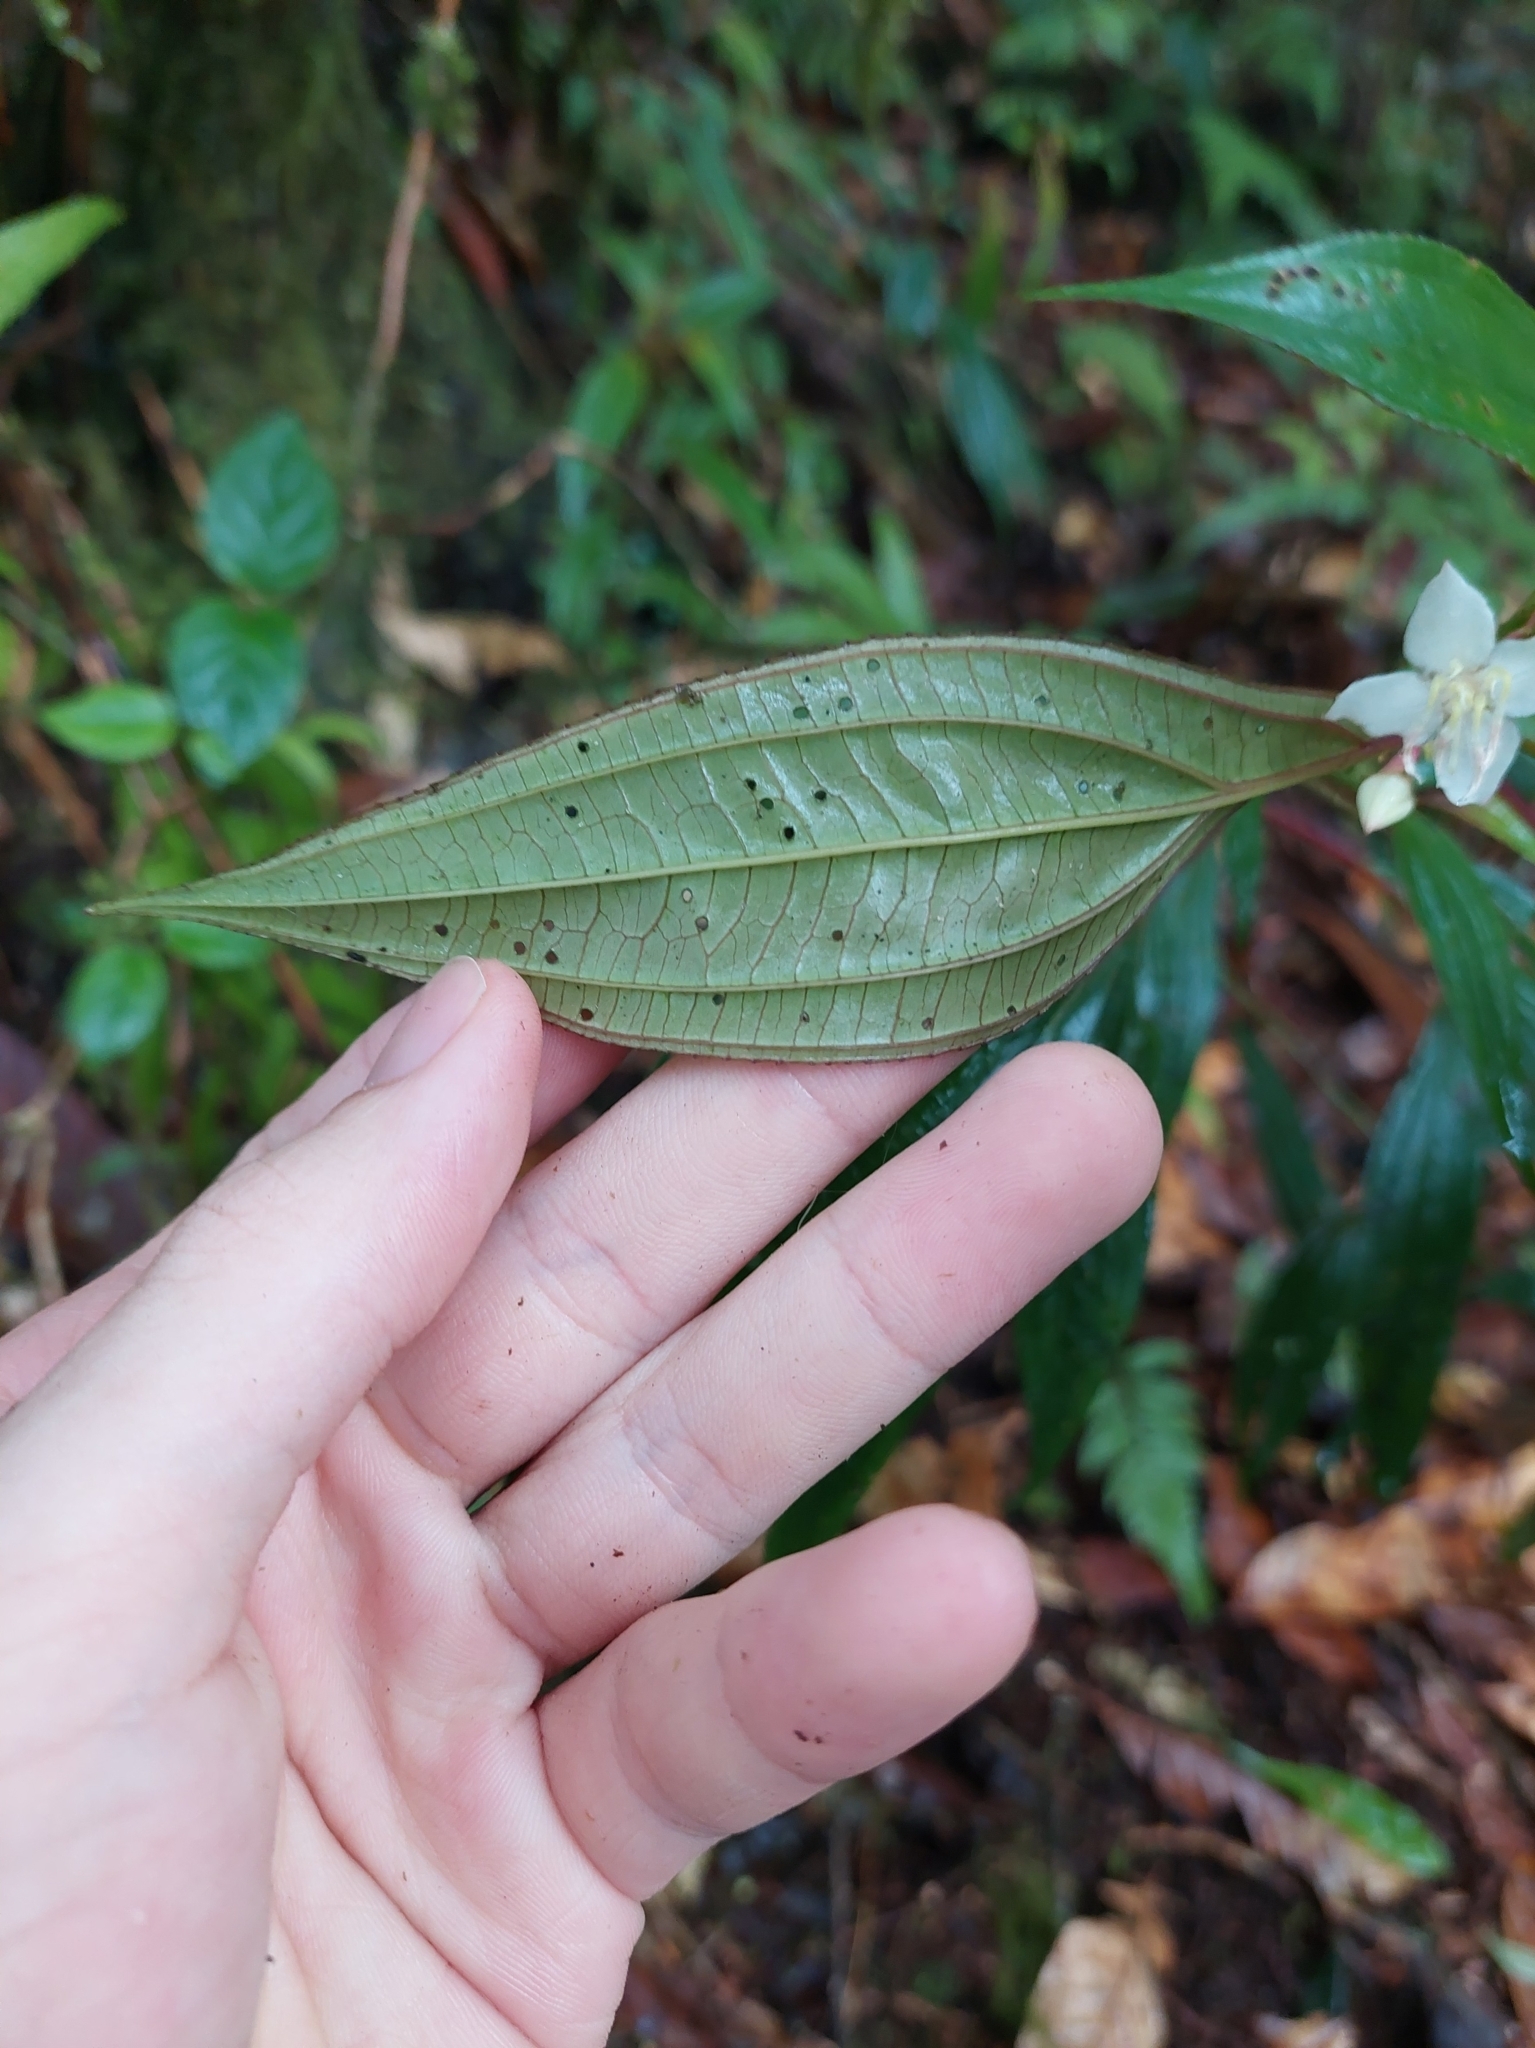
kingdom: Plantae
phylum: Tracheophyta
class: Magnoliopsida
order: Myrtales
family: Melastomataceae
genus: Bredia
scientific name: Bredia oldhamii
